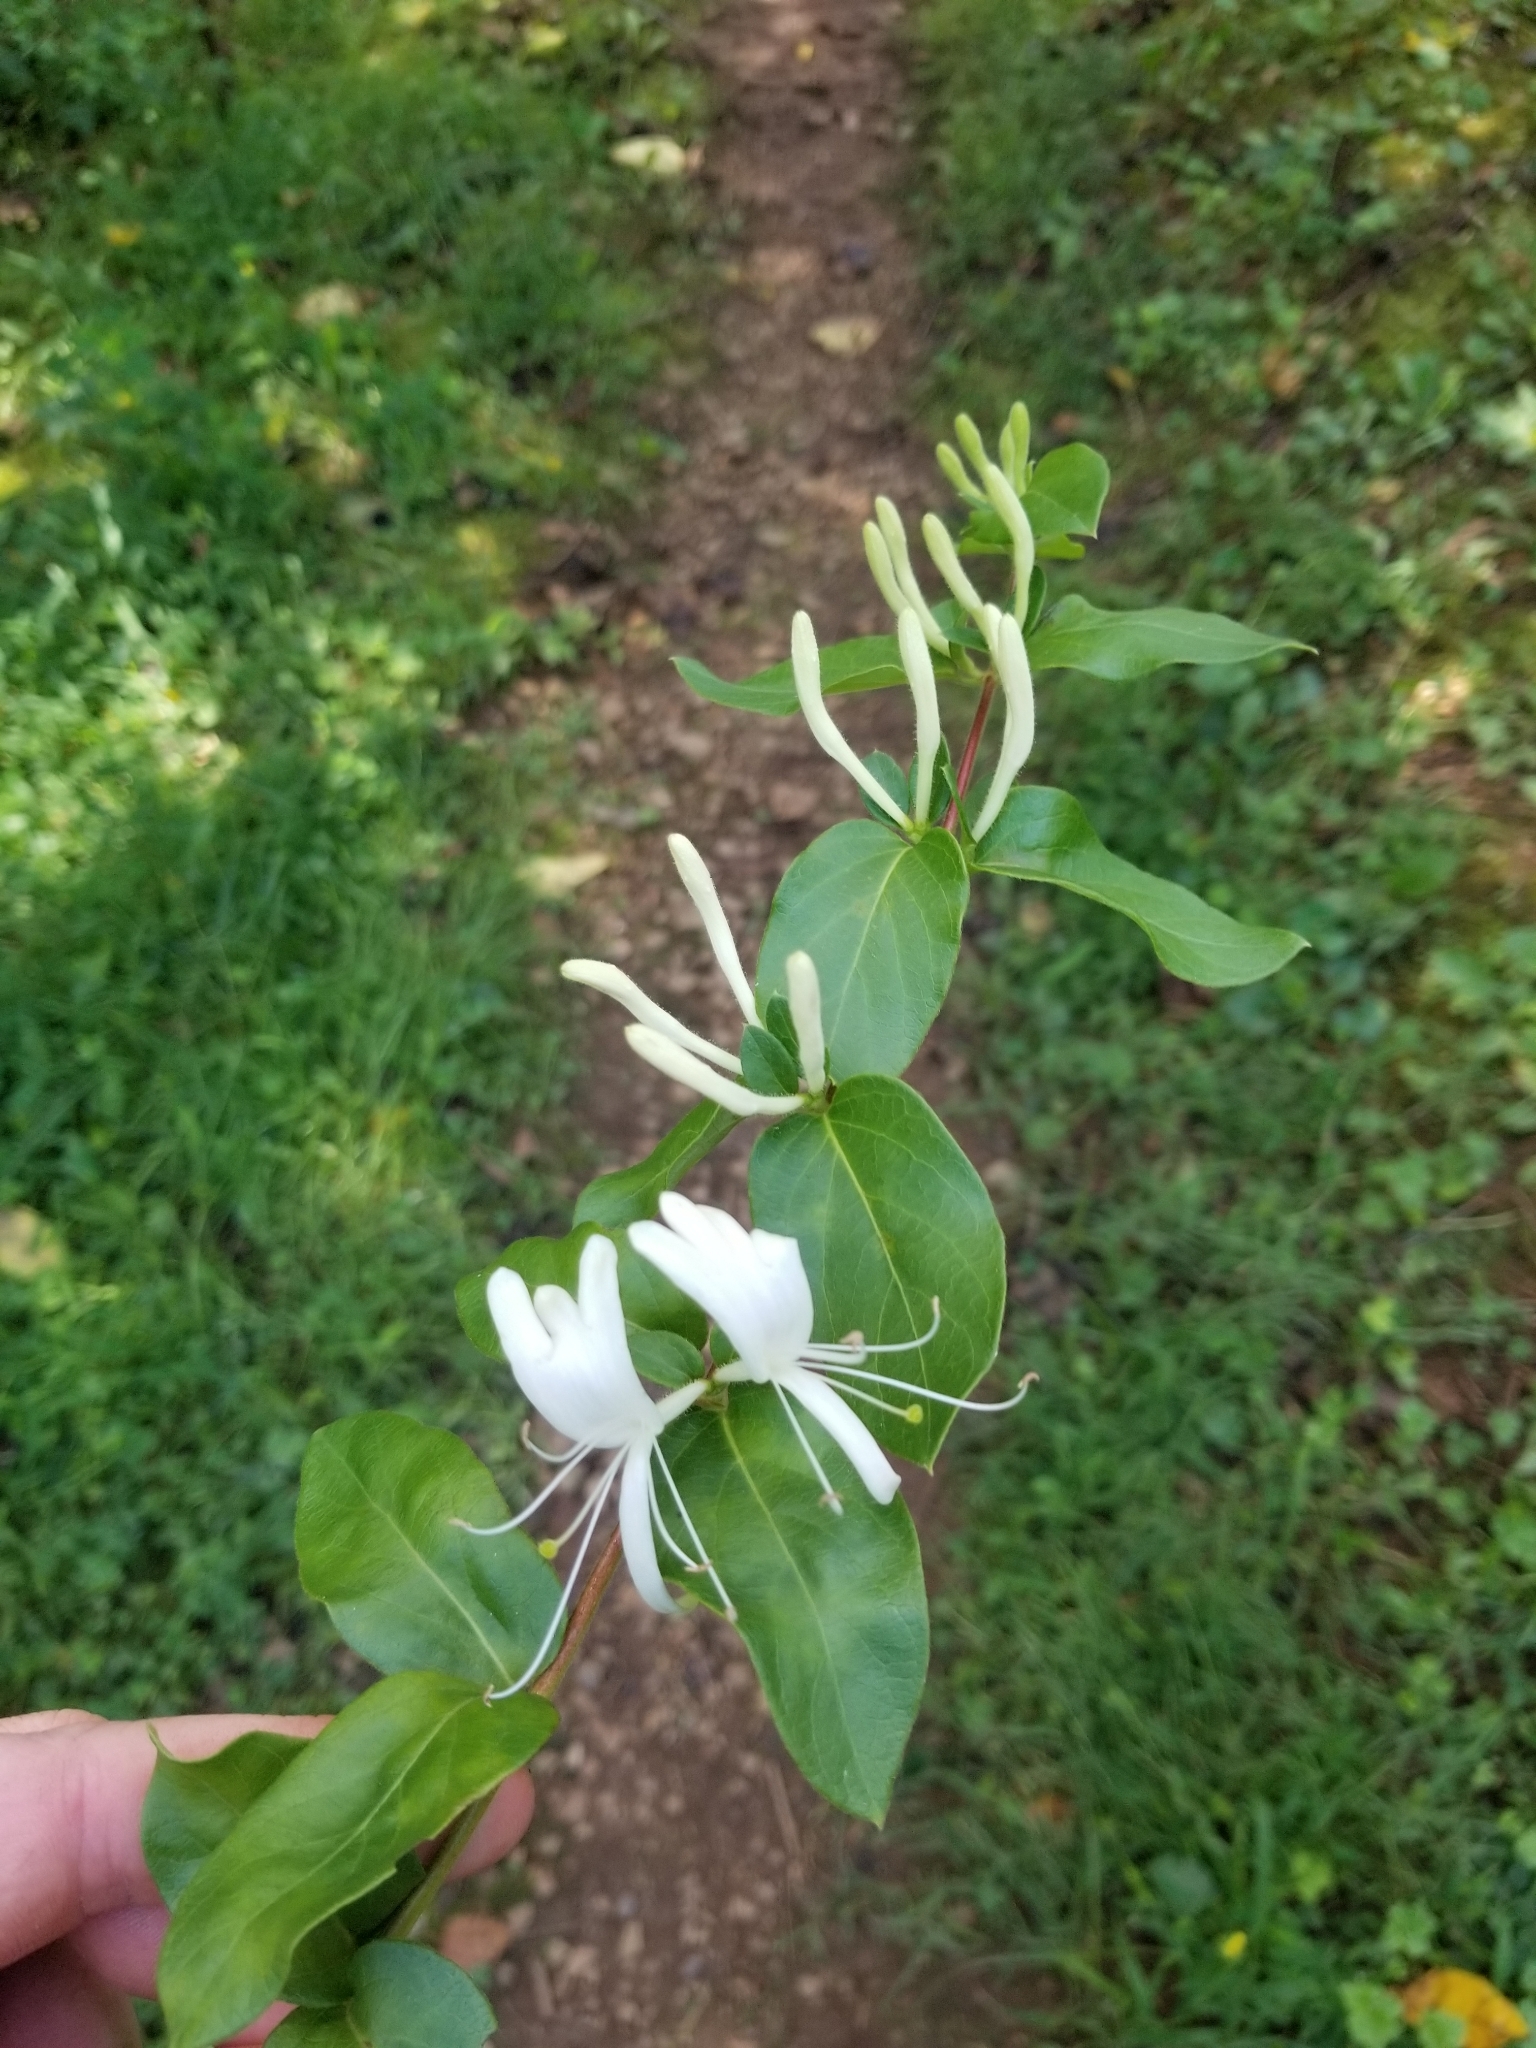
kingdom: Plantae
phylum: Tracheophyta
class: Magnoliopsida
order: Dipsacales
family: Caprifoliaceae
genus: Lonicera
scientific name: Lonicera japonica
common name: Japanese honeysuckle
